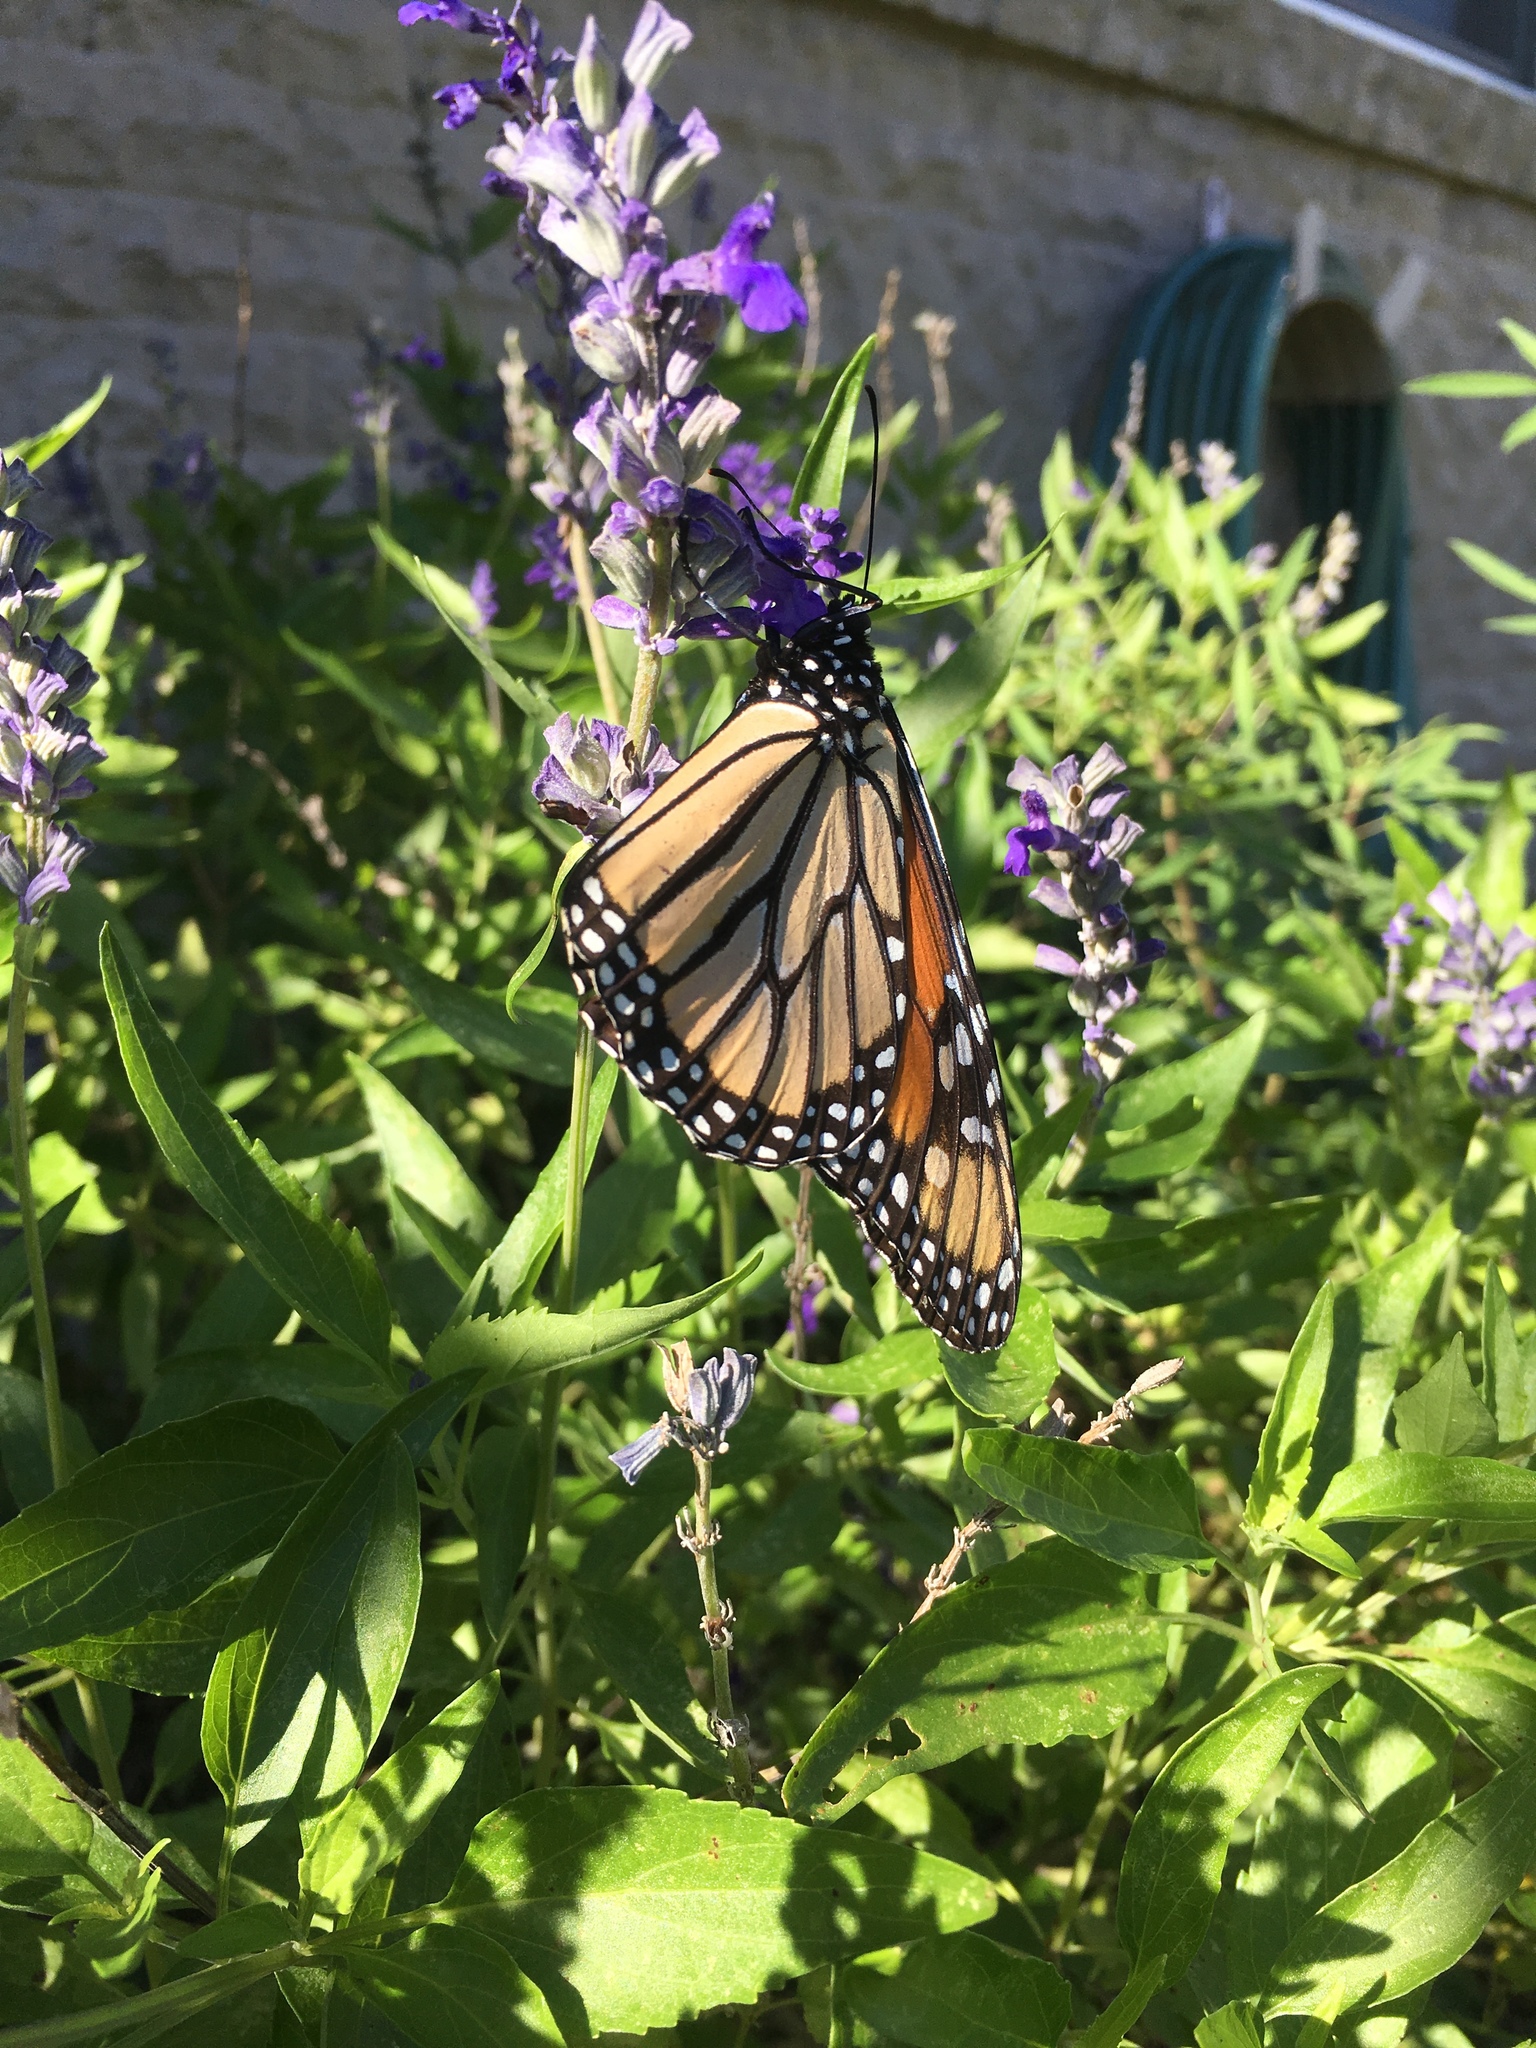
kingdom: Animalia
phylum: Arthropoda
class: Insecta
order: Lepidoptera
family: Nymphalidae
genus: Danaus
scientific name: Danaus plexippus
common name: Monarch
